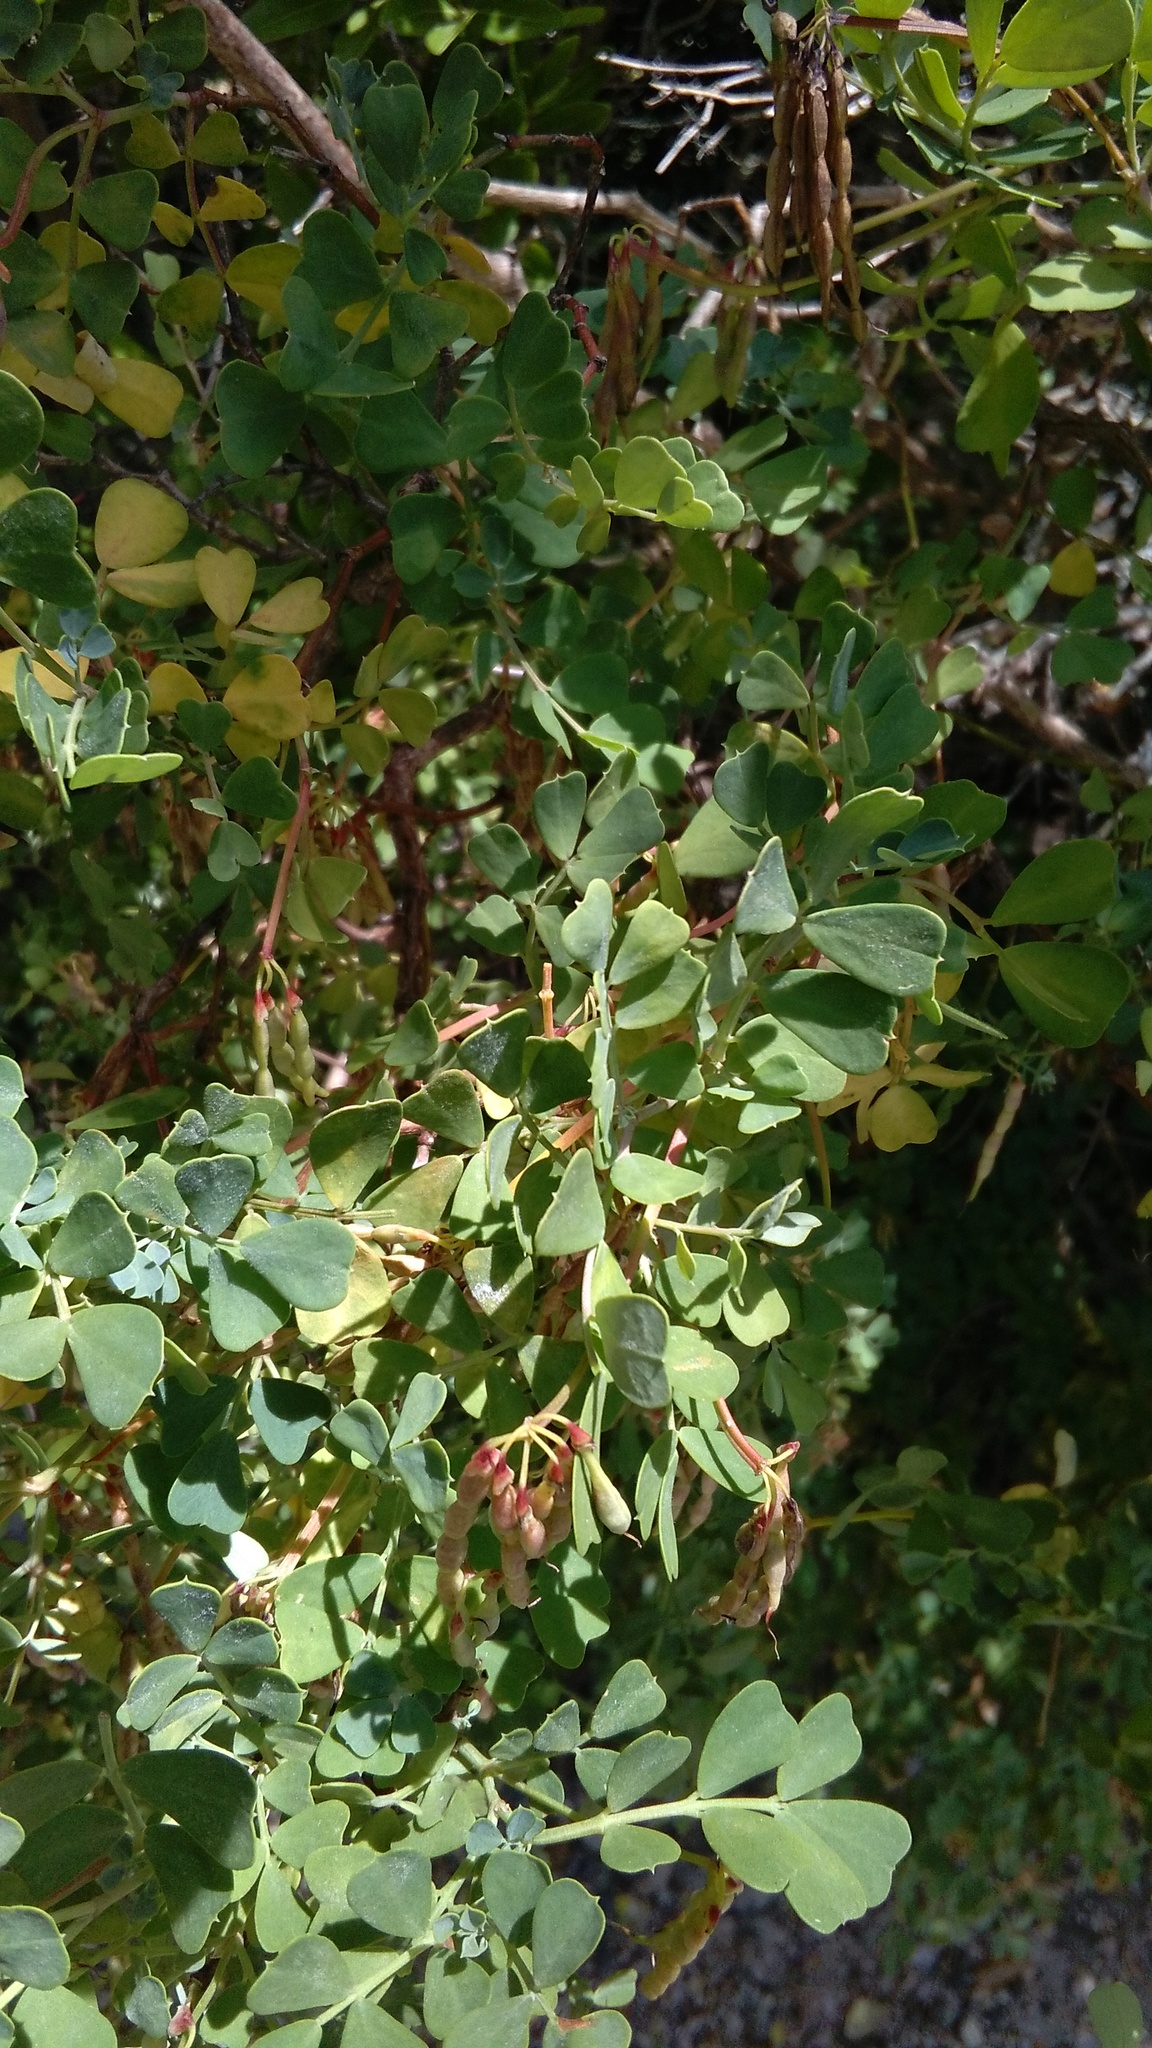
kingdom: Plantae
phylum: Tracheophyta
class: Magnoliopsida
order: Fabales
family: Fabaceae
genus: Coronilla
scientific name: Coronilla valentina
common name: Shrubby scorpion-vetch
